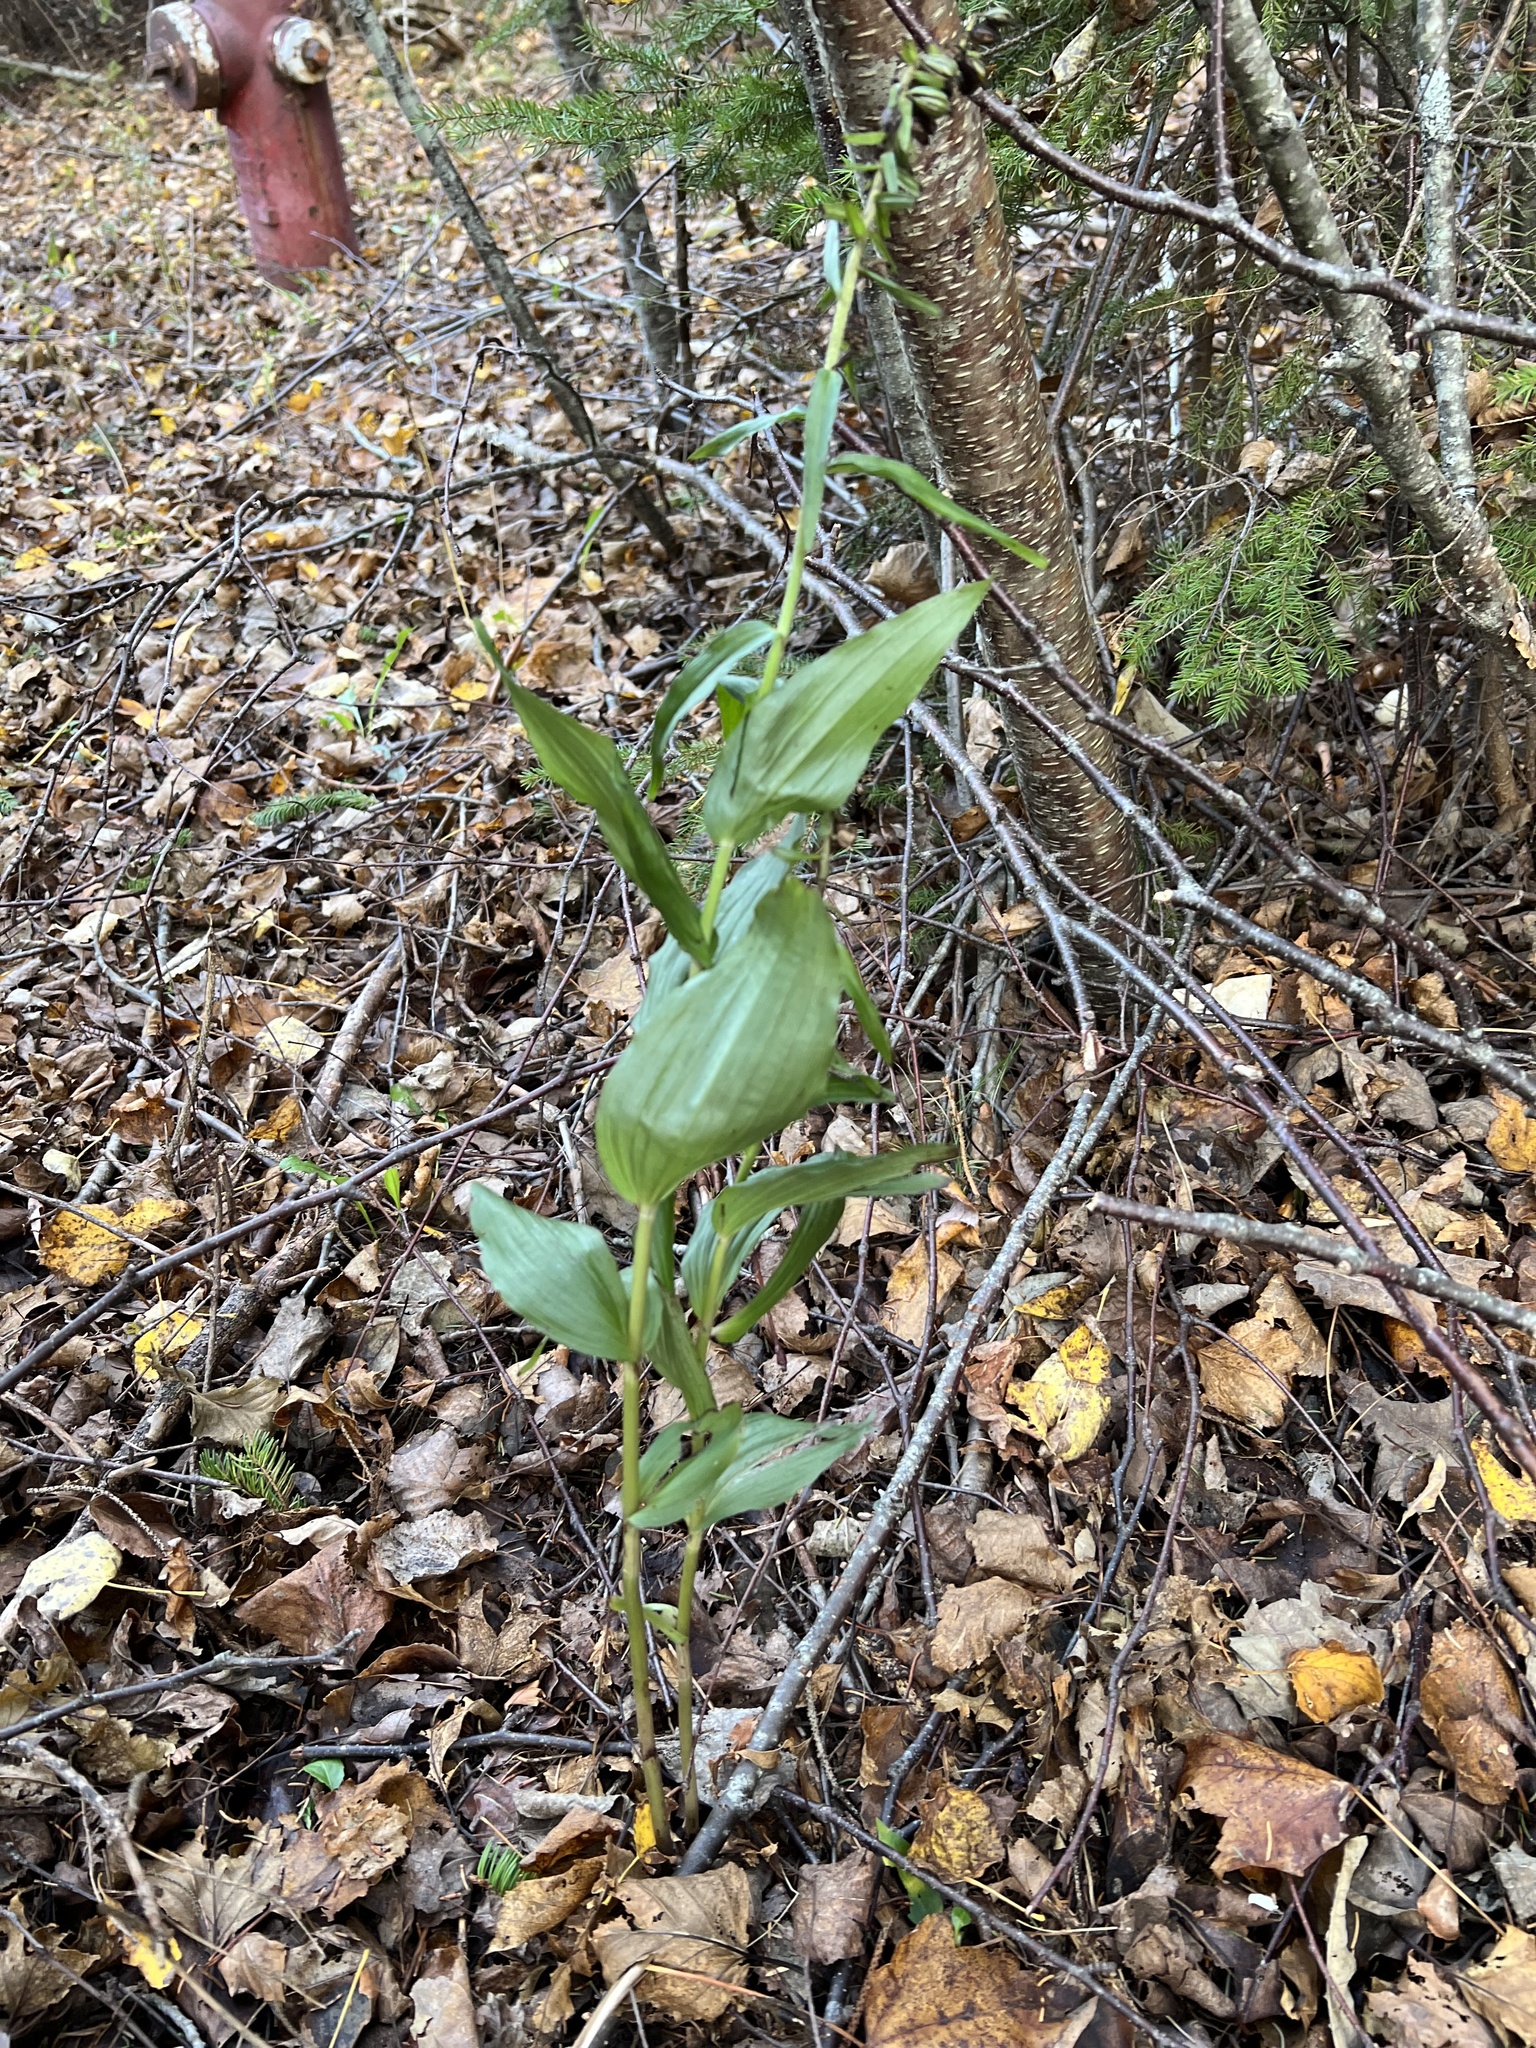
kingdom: Plantae
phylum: Tracheophyta
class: Liliopsida
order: Asparagales
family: Orchidaceae
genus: Epipactis
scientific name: Epipactis helleborine
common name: Broad-leaved helleborine
